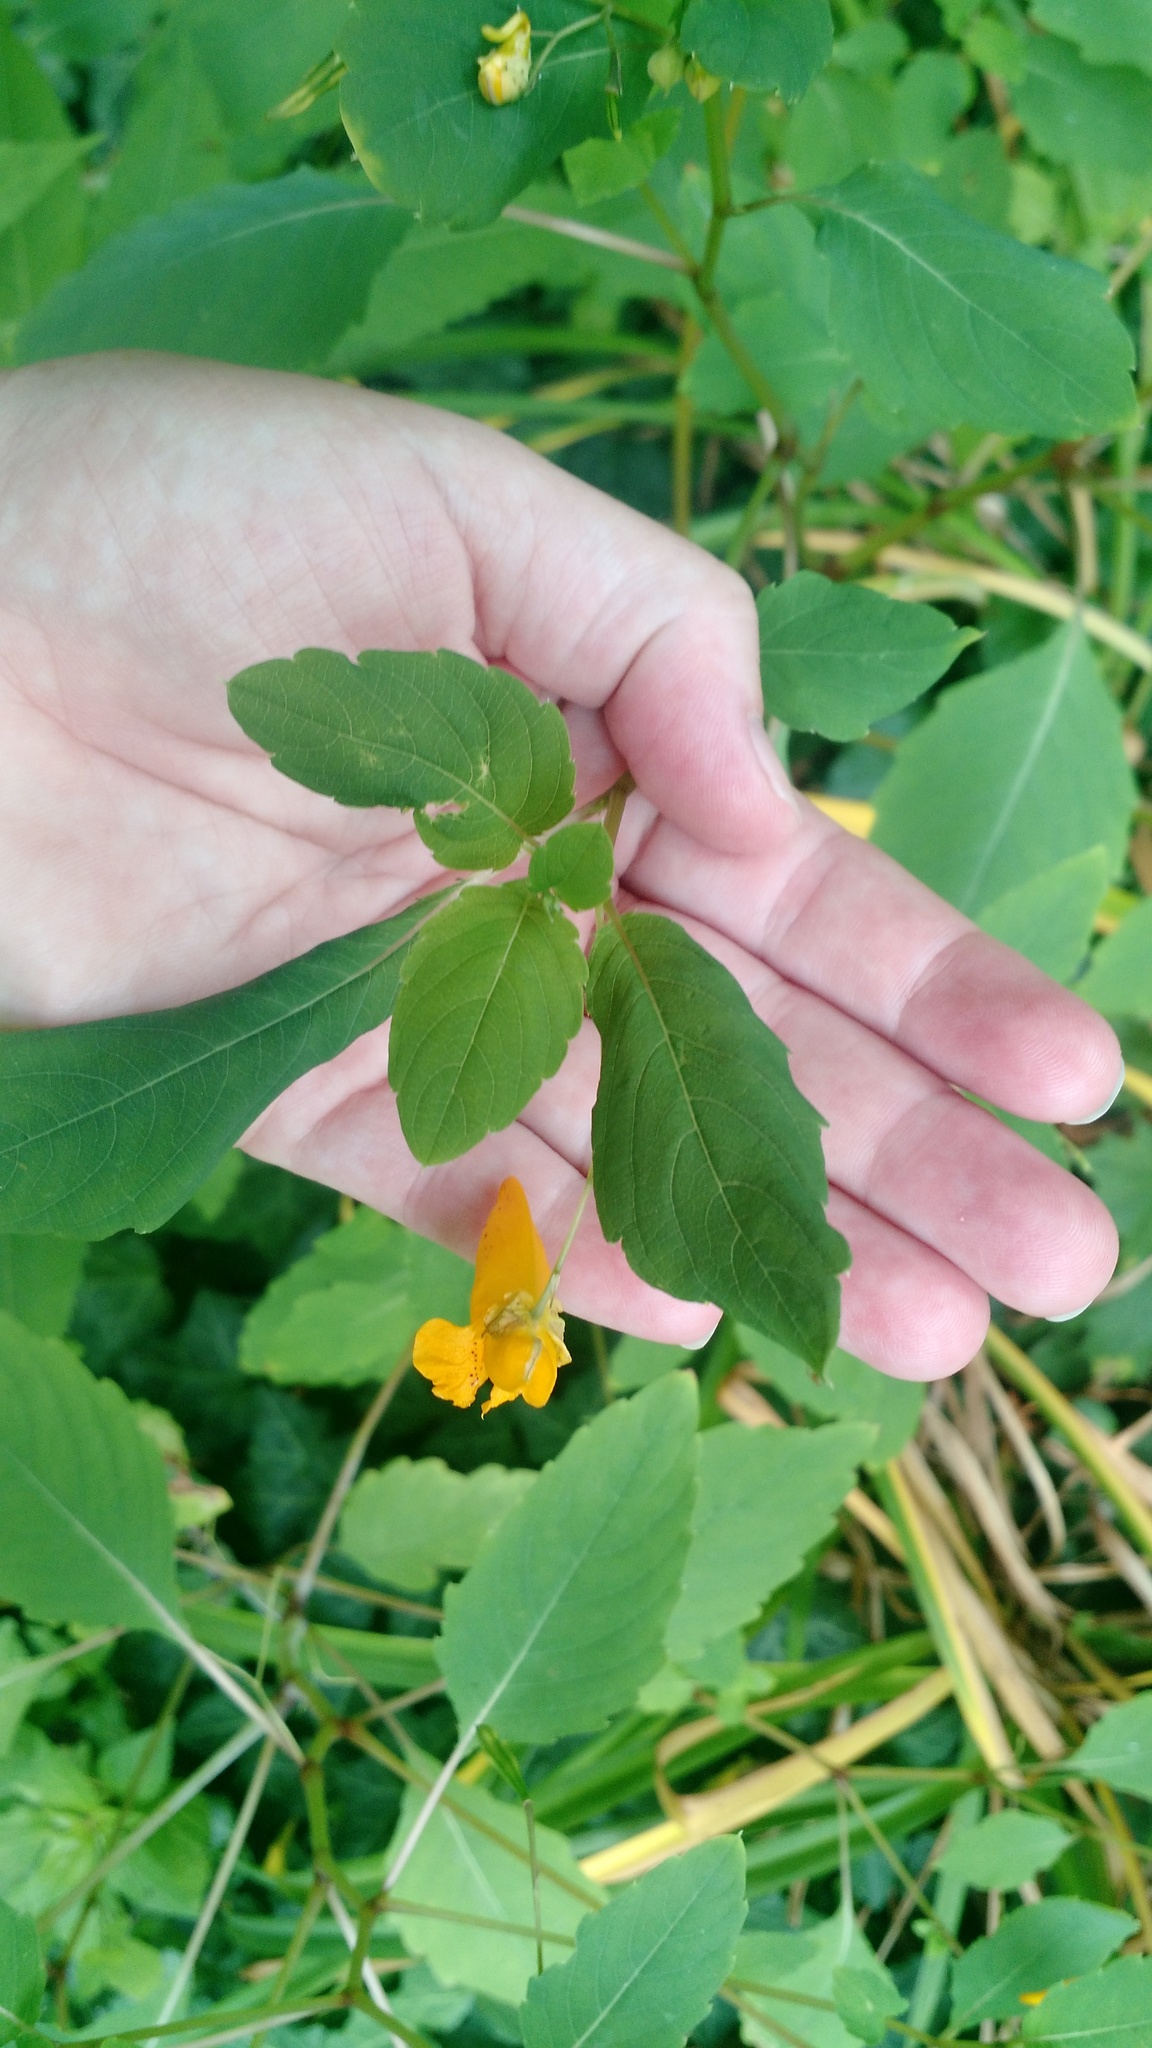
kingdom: Plantae
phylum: Tracheophyta
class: Magnoliopsida
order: Ericales
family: Balsaminaceae
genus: Impatiens
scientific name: Impatiens capensis
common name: Orange balsam
